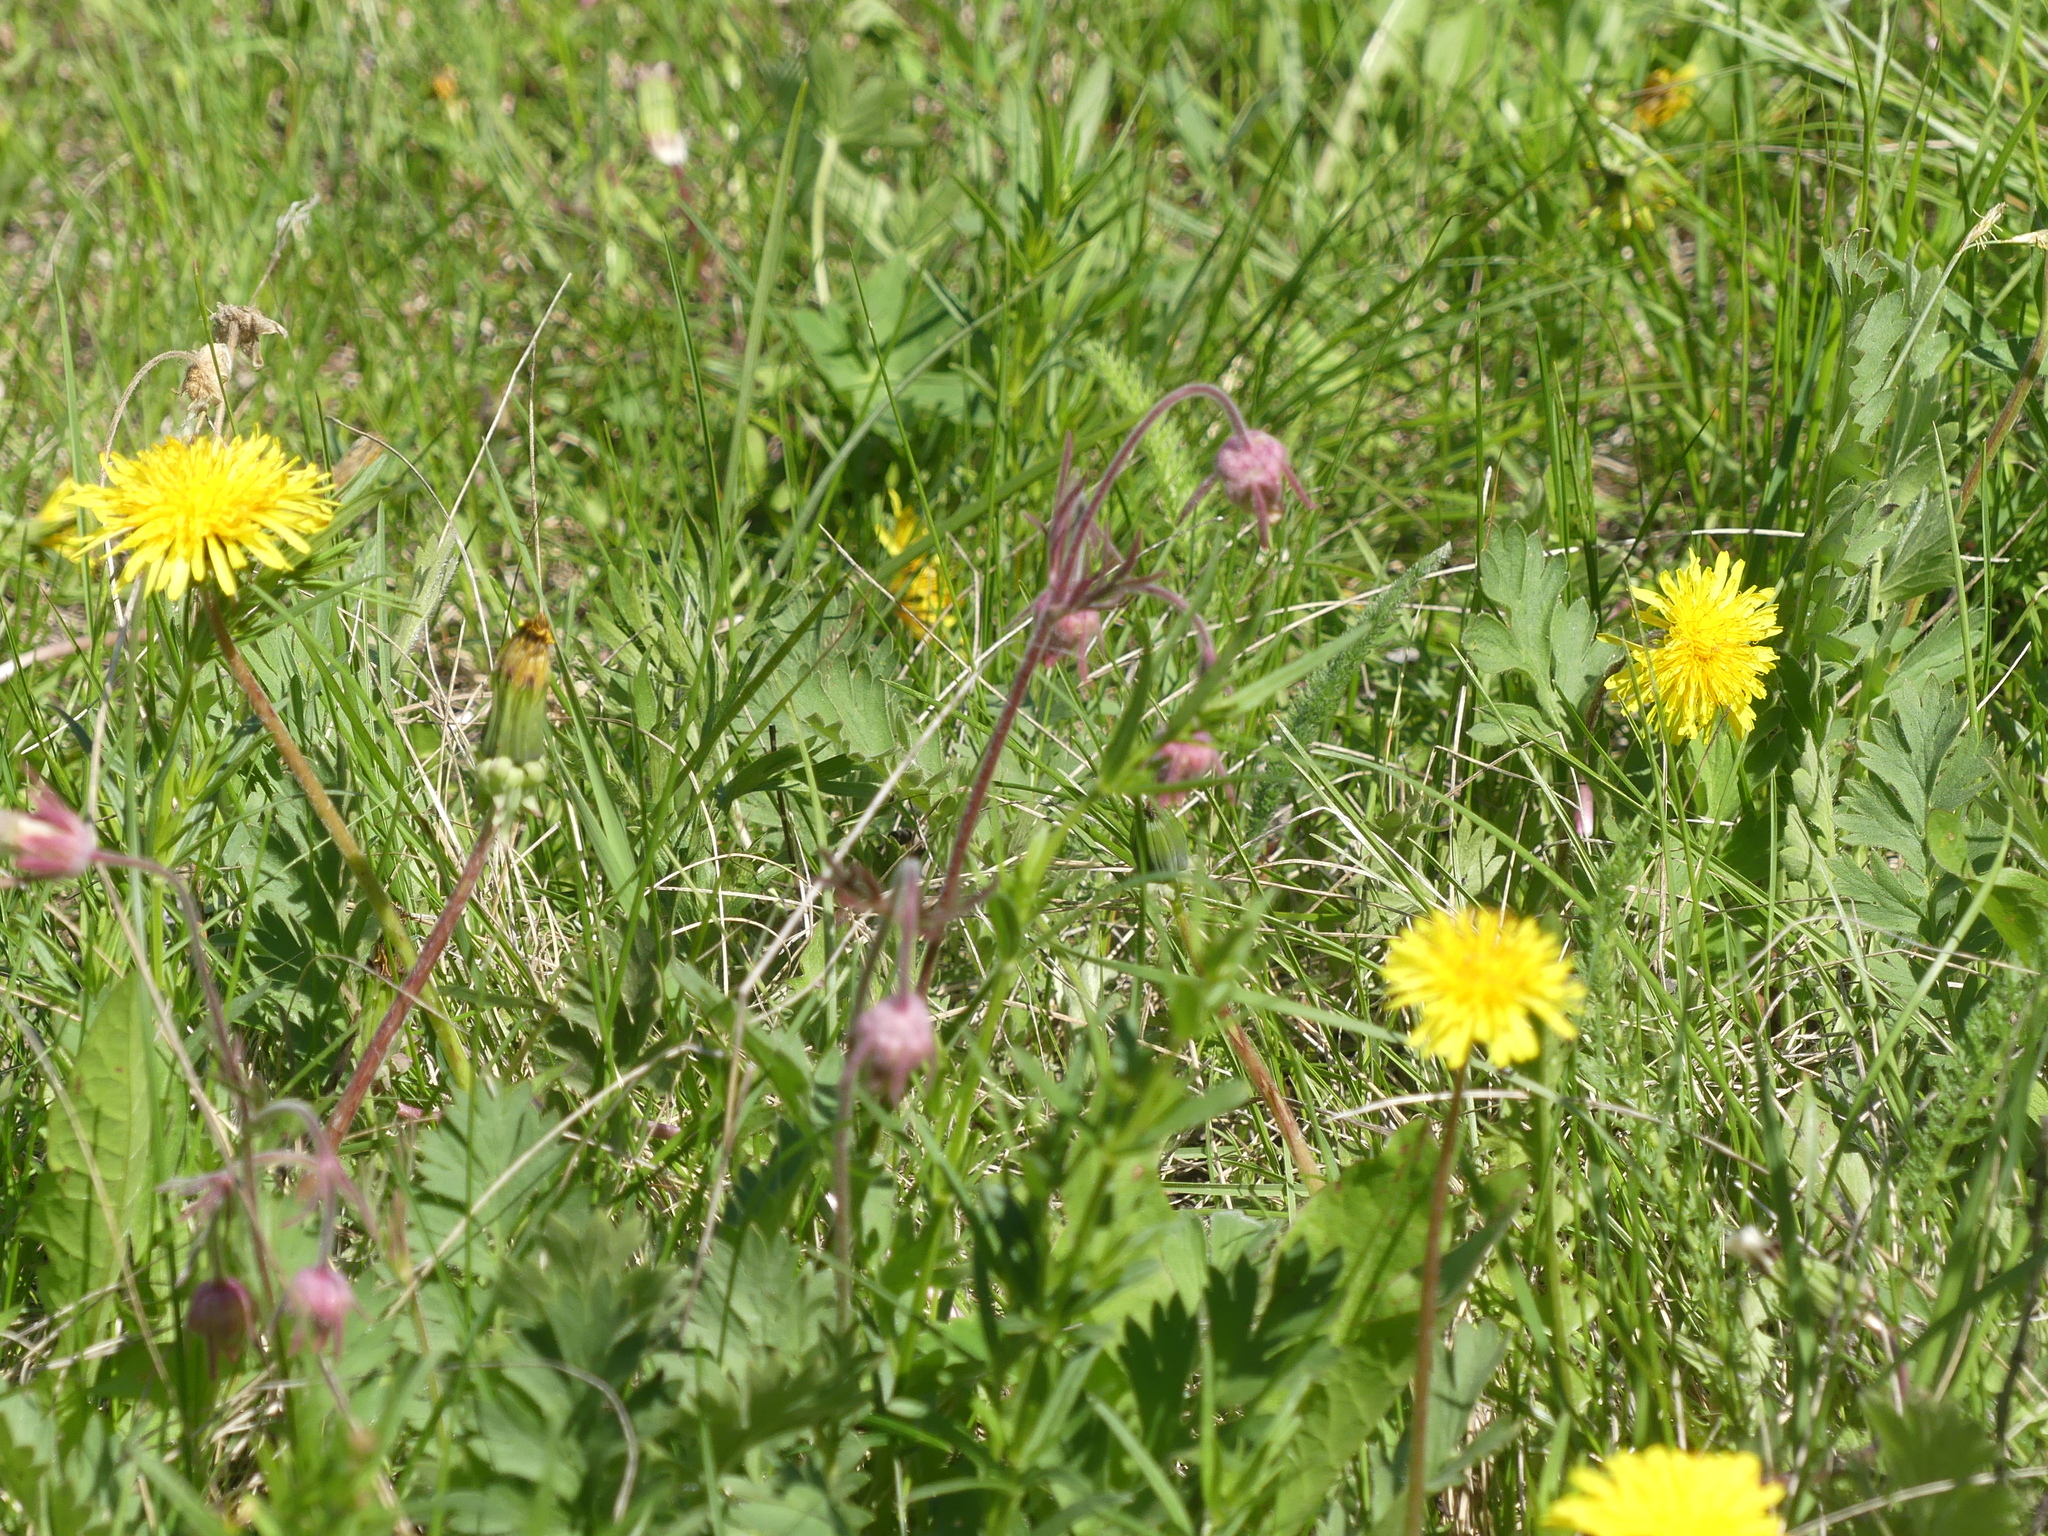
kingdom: Plantae
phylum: Tracheophyta
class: Magnoliopsida
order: Rosales
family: Rosaceae
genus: Geum
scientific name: Geum triflorum
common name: Old man's whiskers
